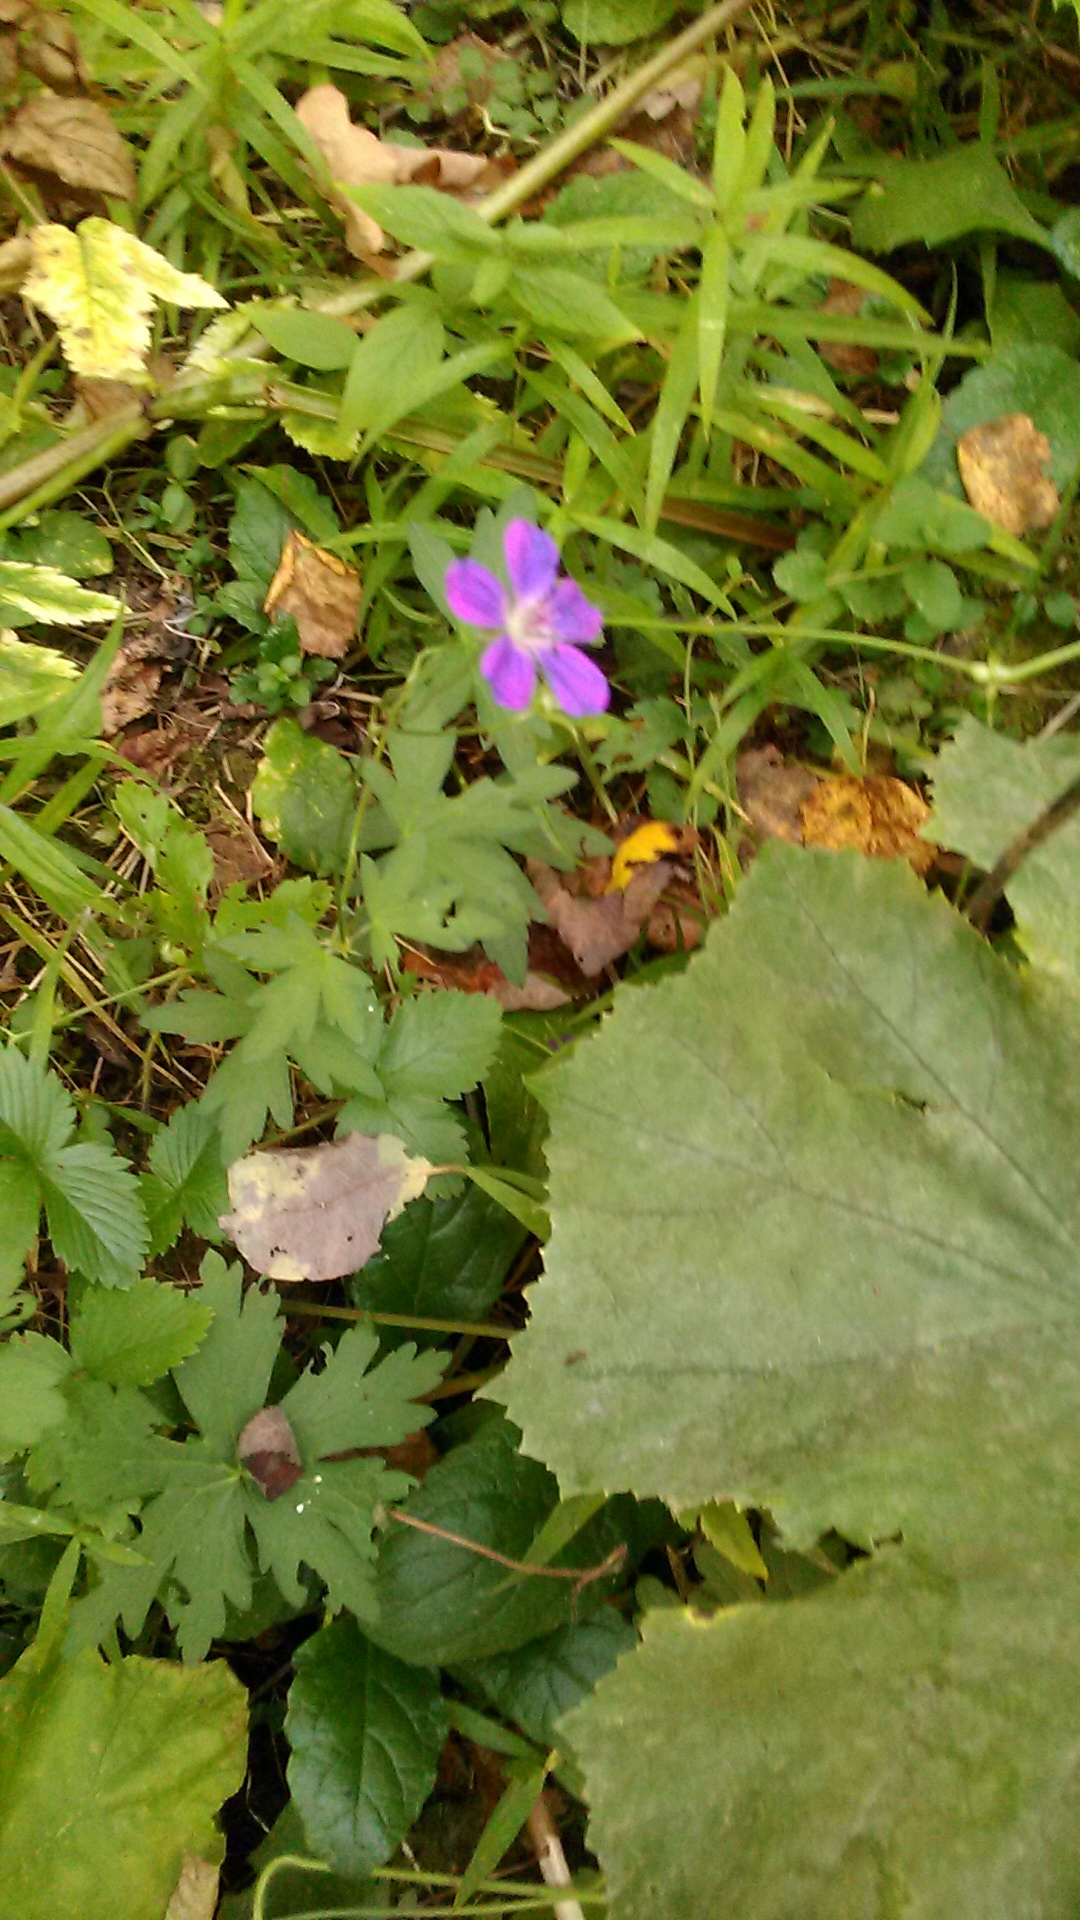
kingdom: Plantae
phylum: Tracheophyta
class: Magnoliopsida
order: Geraniales
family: Geraniaceae
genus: Geranium
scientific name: Geranium palustre
